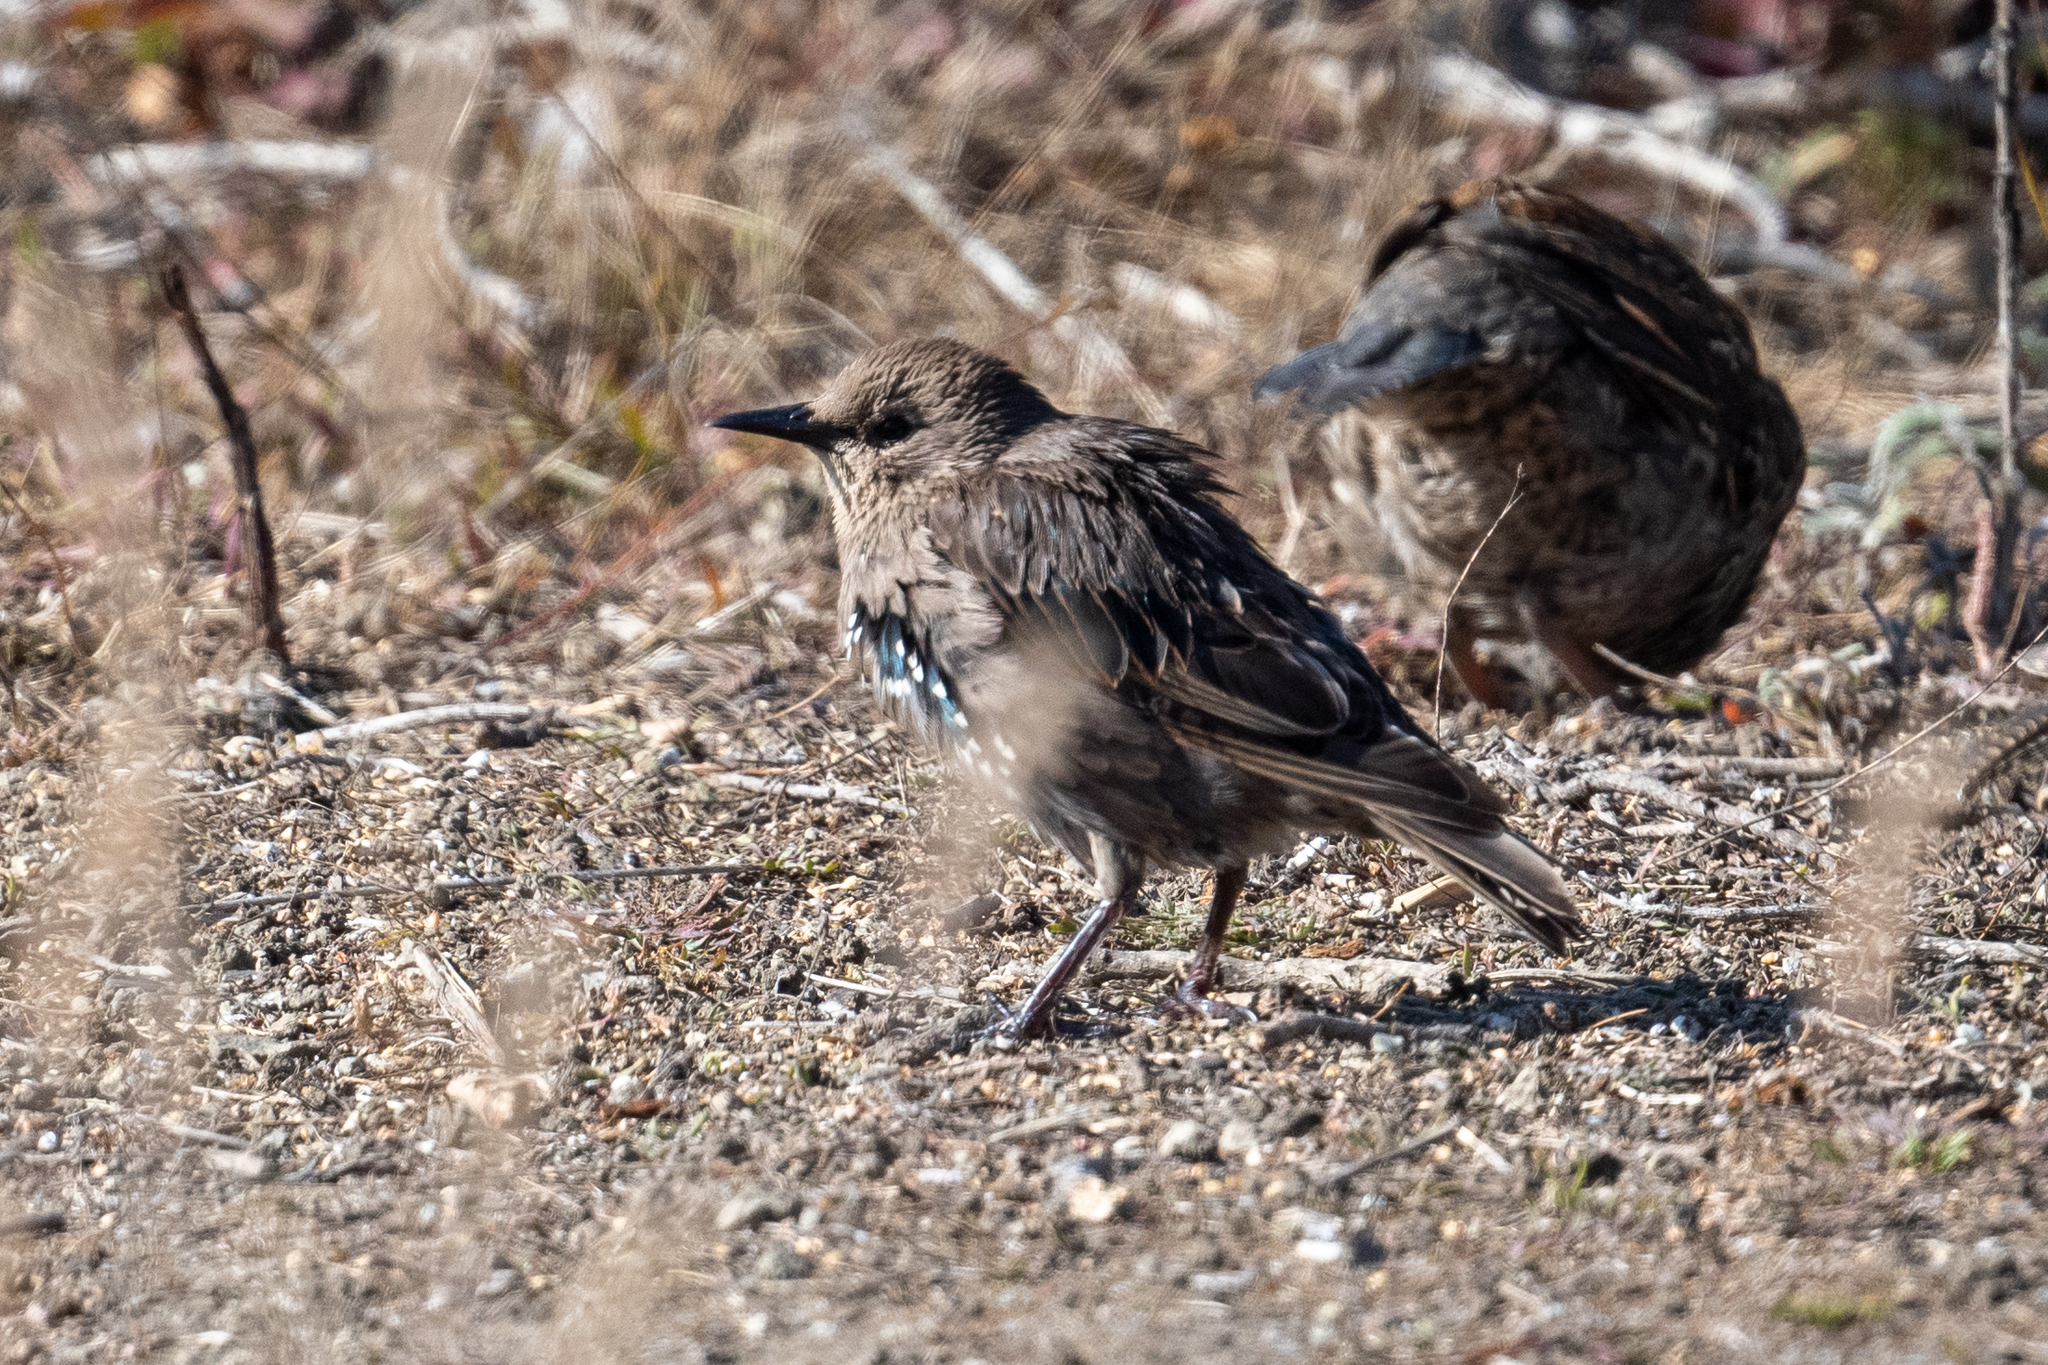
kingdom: Animalia
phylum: Chordata
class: Aves
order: Passeriformes
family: Sturnidae
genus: Sturnus
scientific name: Sturnus vulgaris
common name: Common starling
